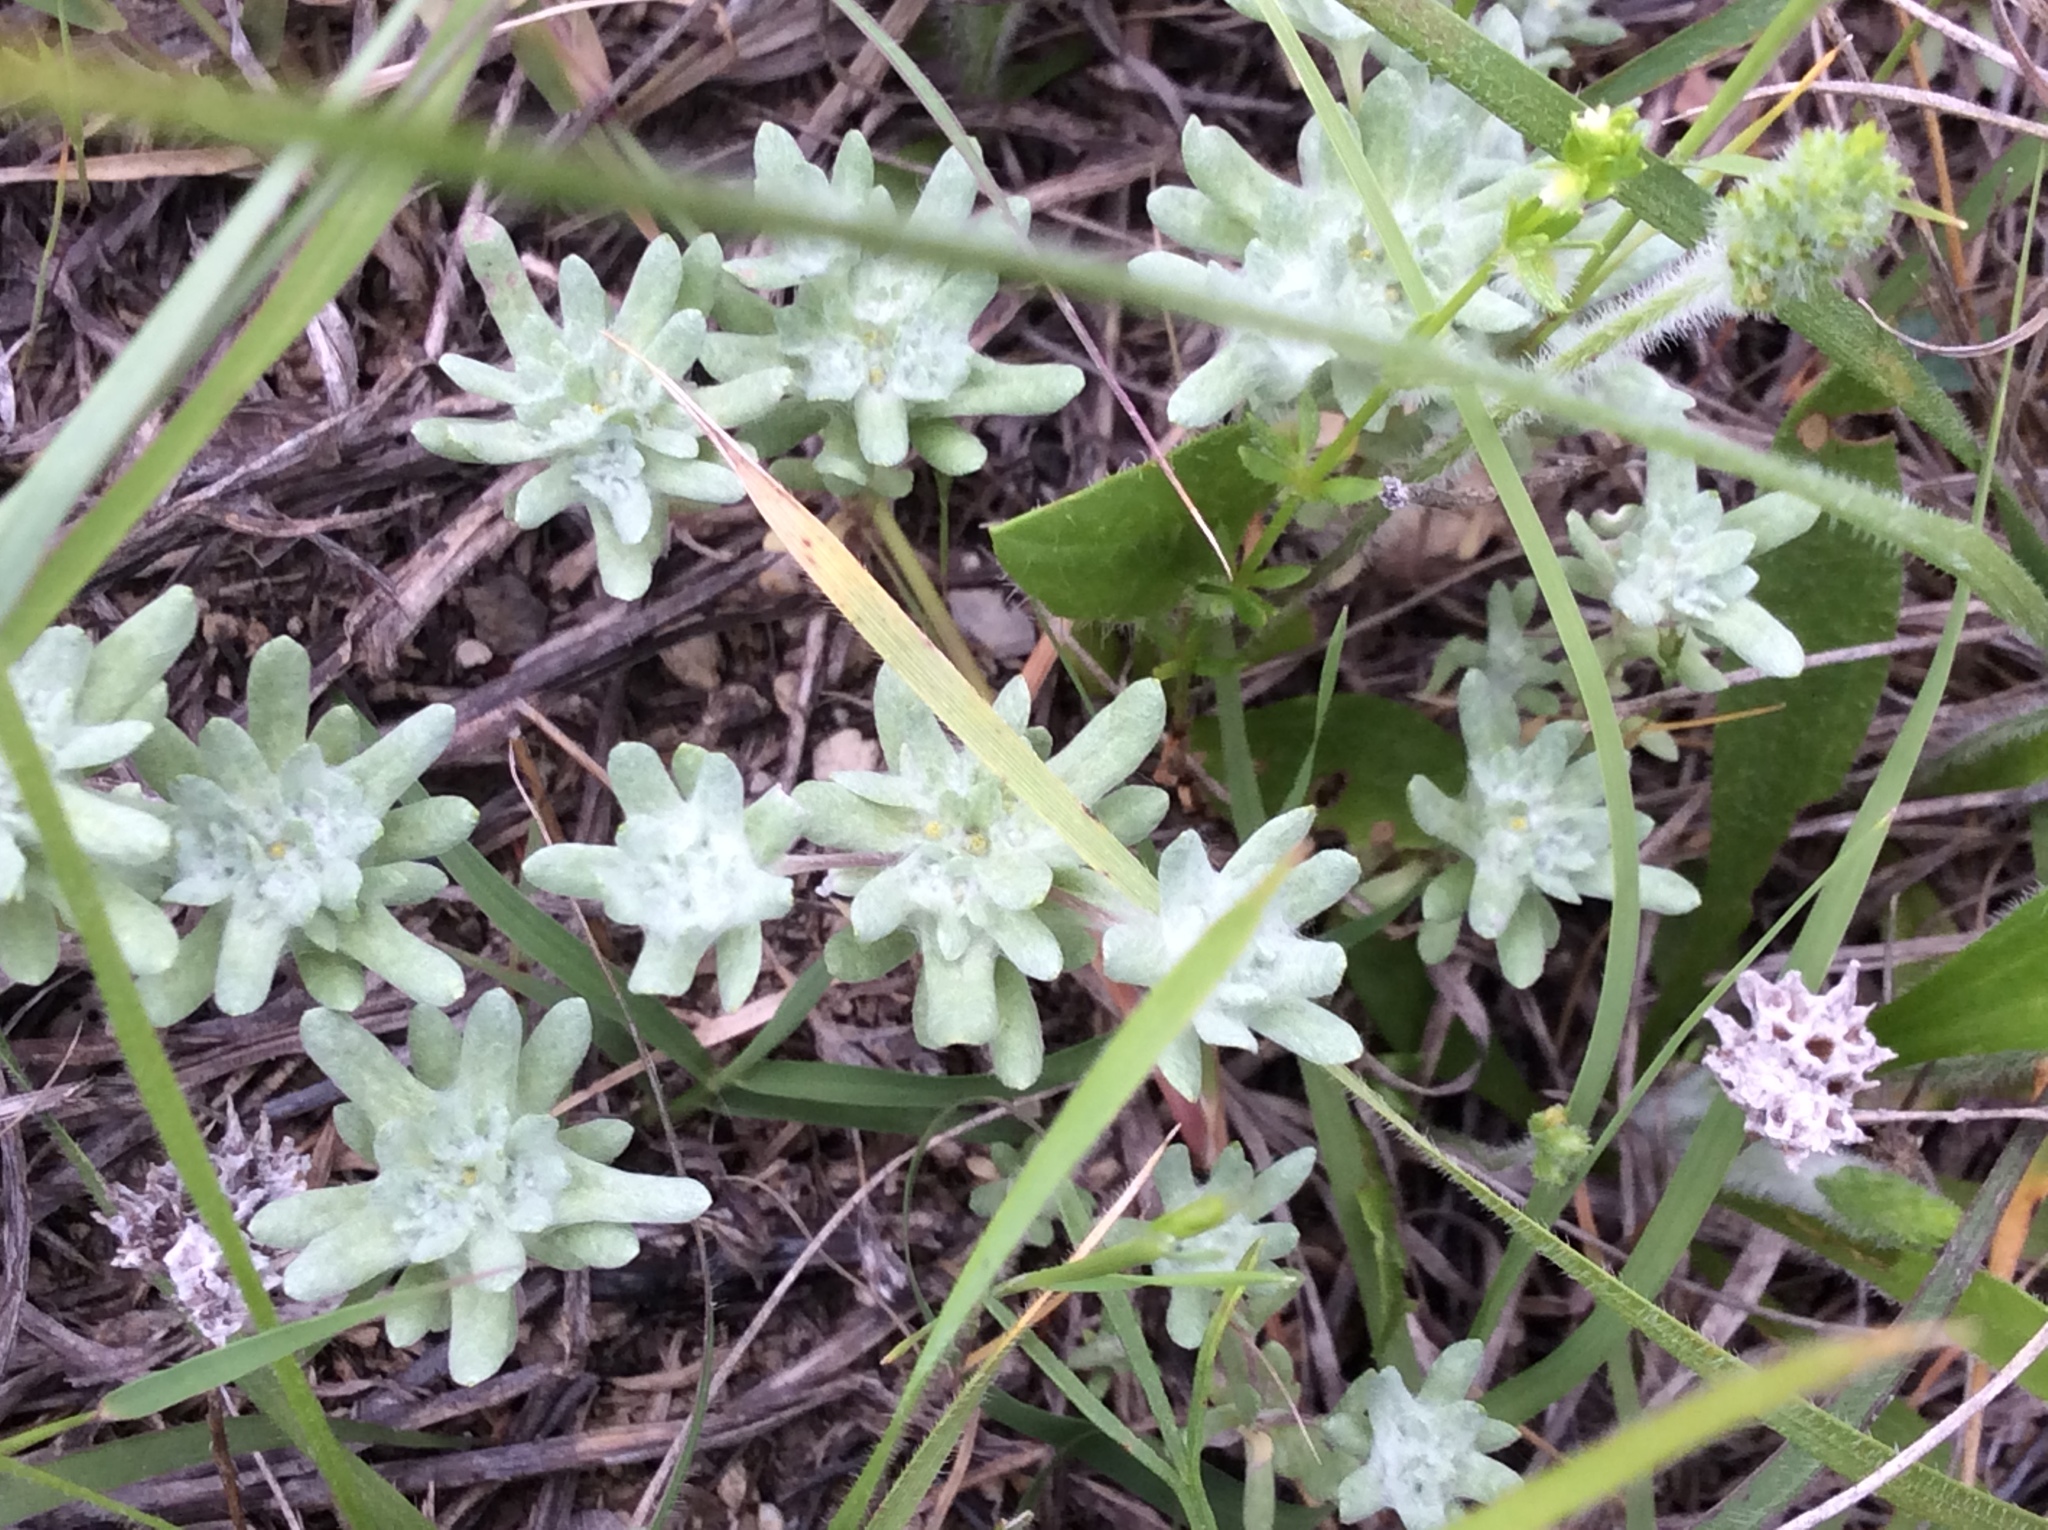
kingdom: Plantae
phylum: Tracheophyta
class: Magnoliopsida
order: Asterales
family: Asteraceae
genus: Diaperia
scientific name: Diaperia prolifera
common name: Big-head rabbit-tobacco
